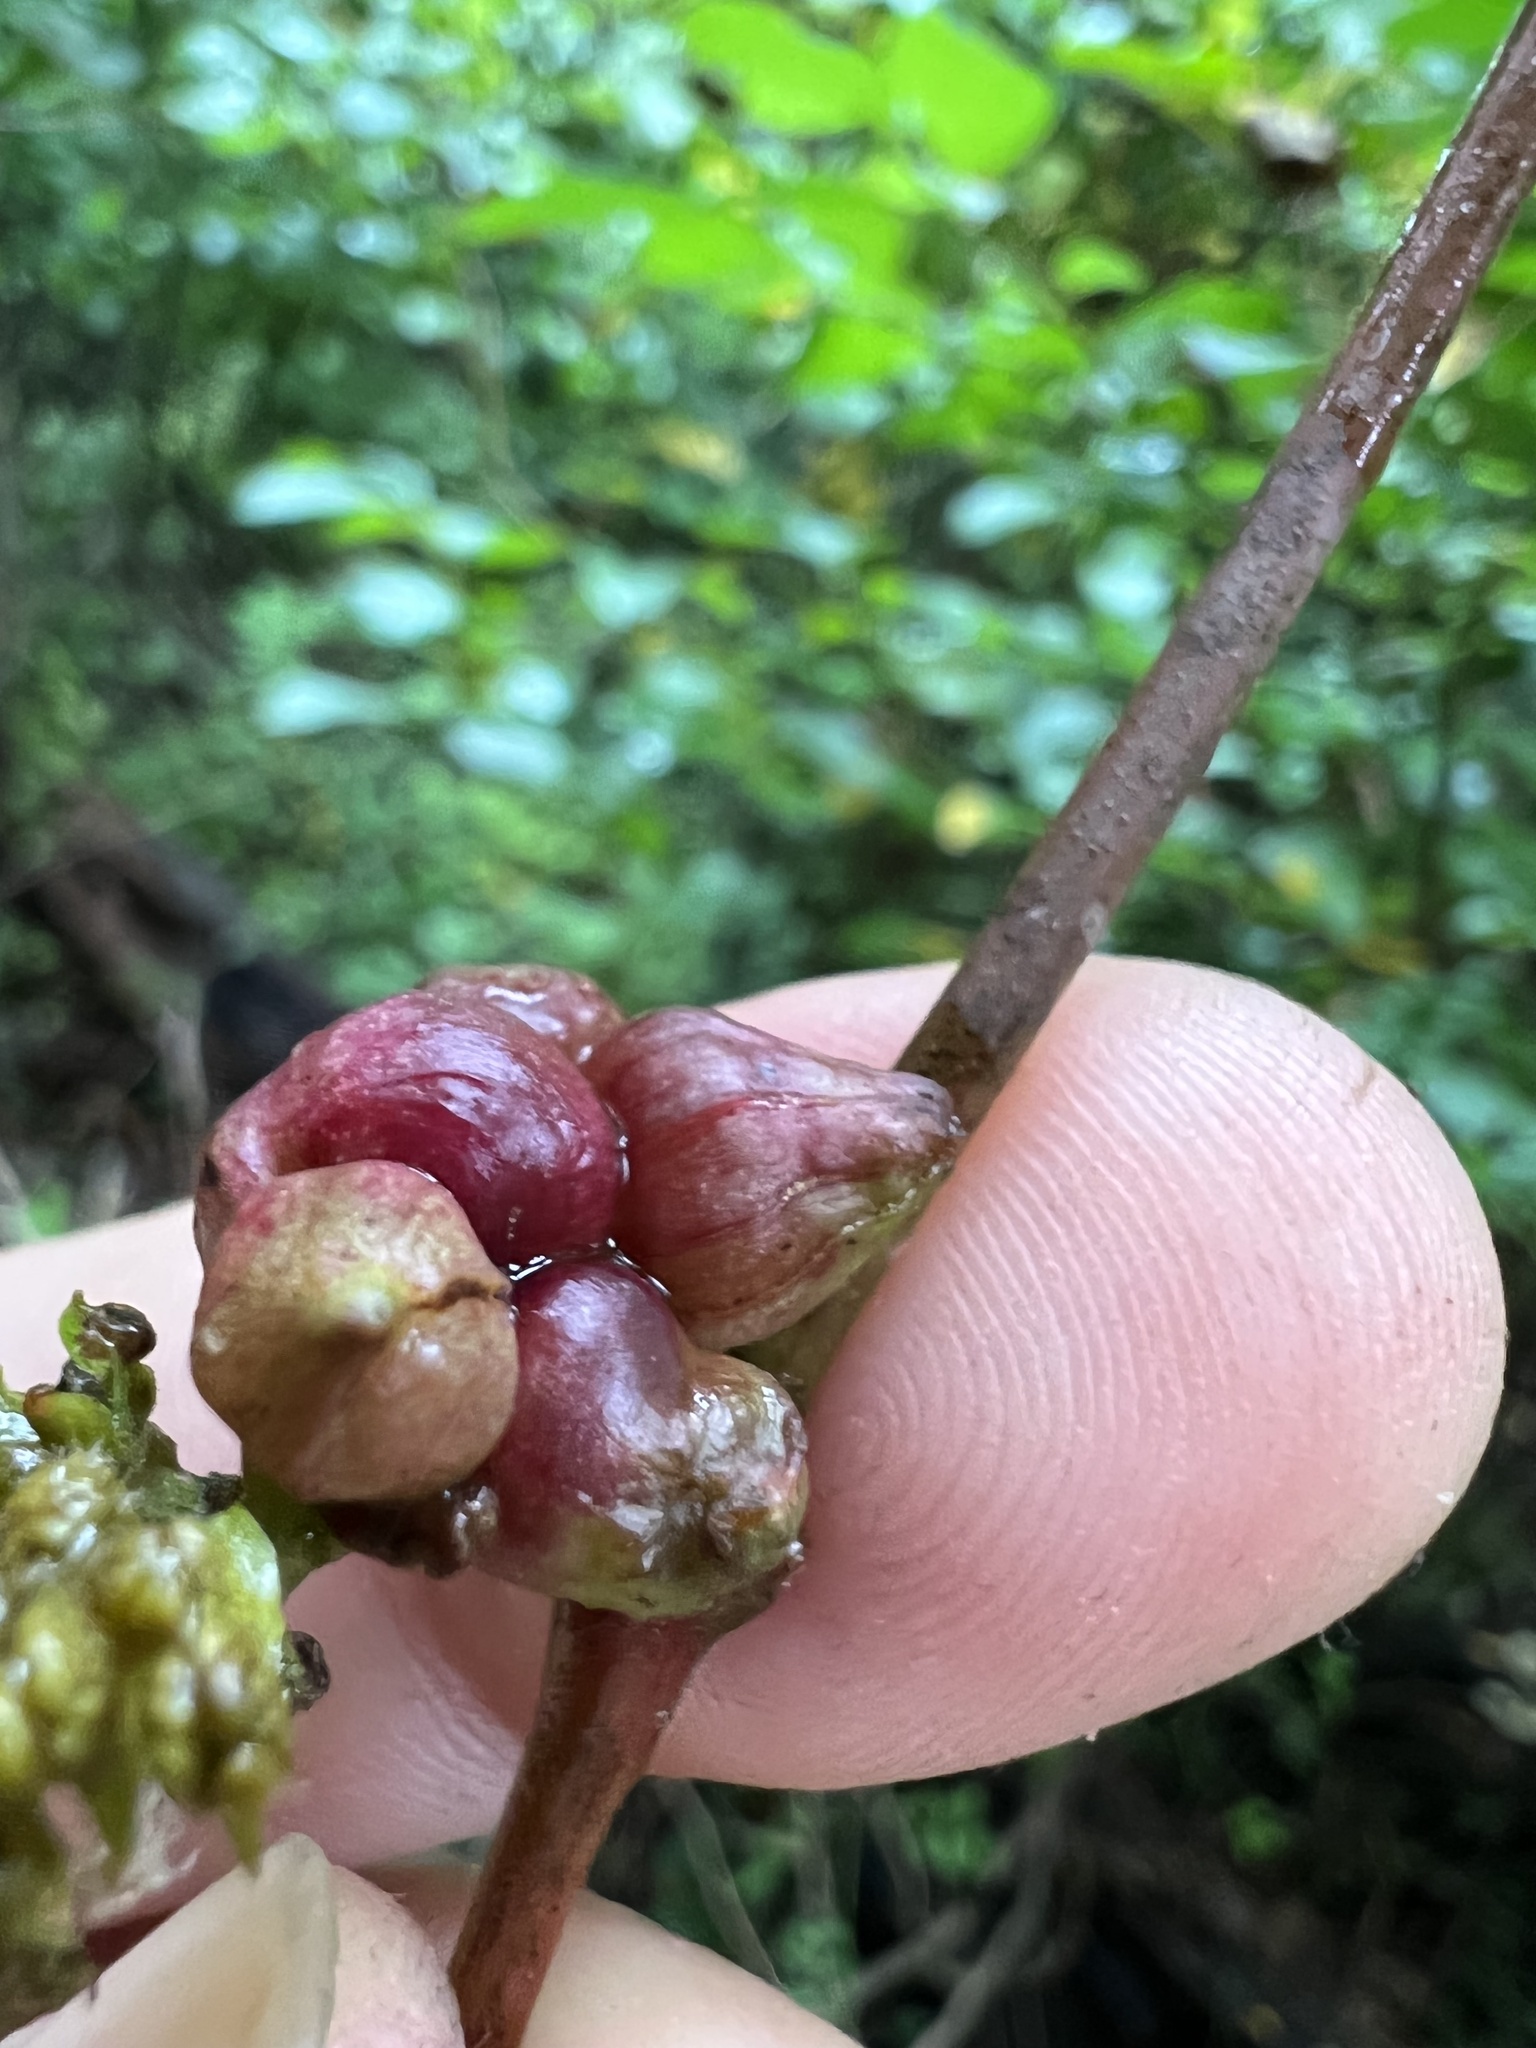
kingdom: Animalia
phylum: Arthropoda
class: Insecta
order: Diptera
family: Cecidomyiidae
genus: Ampelomyia
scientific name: Ampelomyia vitiscoryloides
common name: Grape filbert gall
